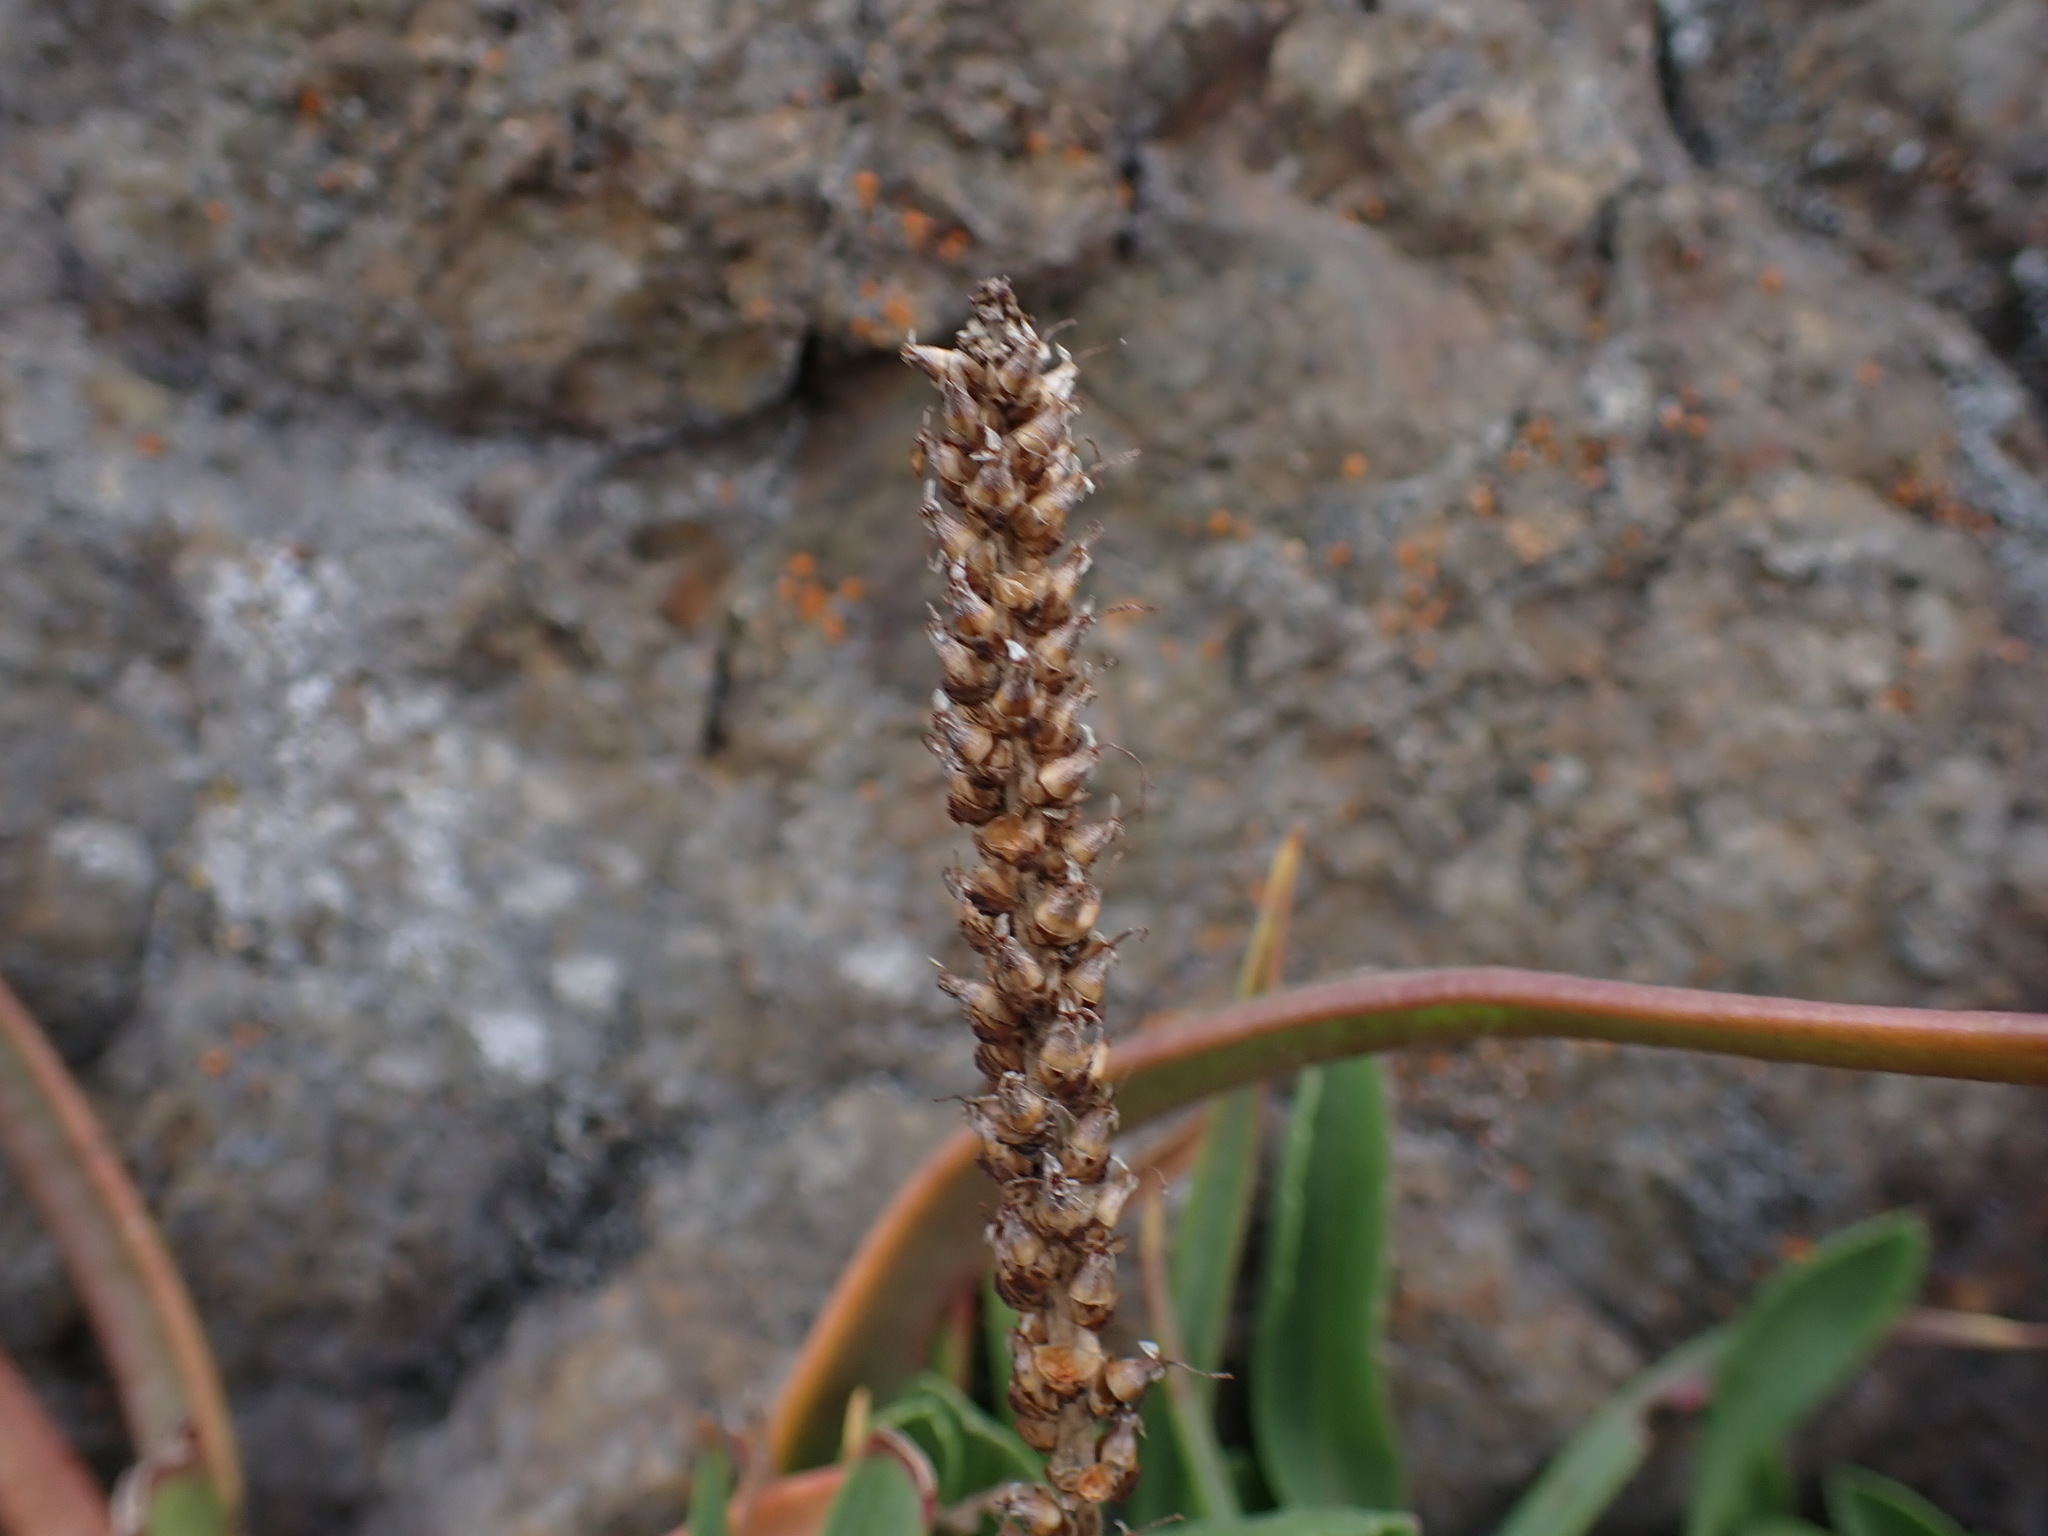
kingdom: Plantae
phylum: Tracheophyta
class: Magnoliopsida
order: Lamiales
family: Plantaginaceae
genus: Plantago
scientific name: Plantago maritima
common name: Sea plantain
